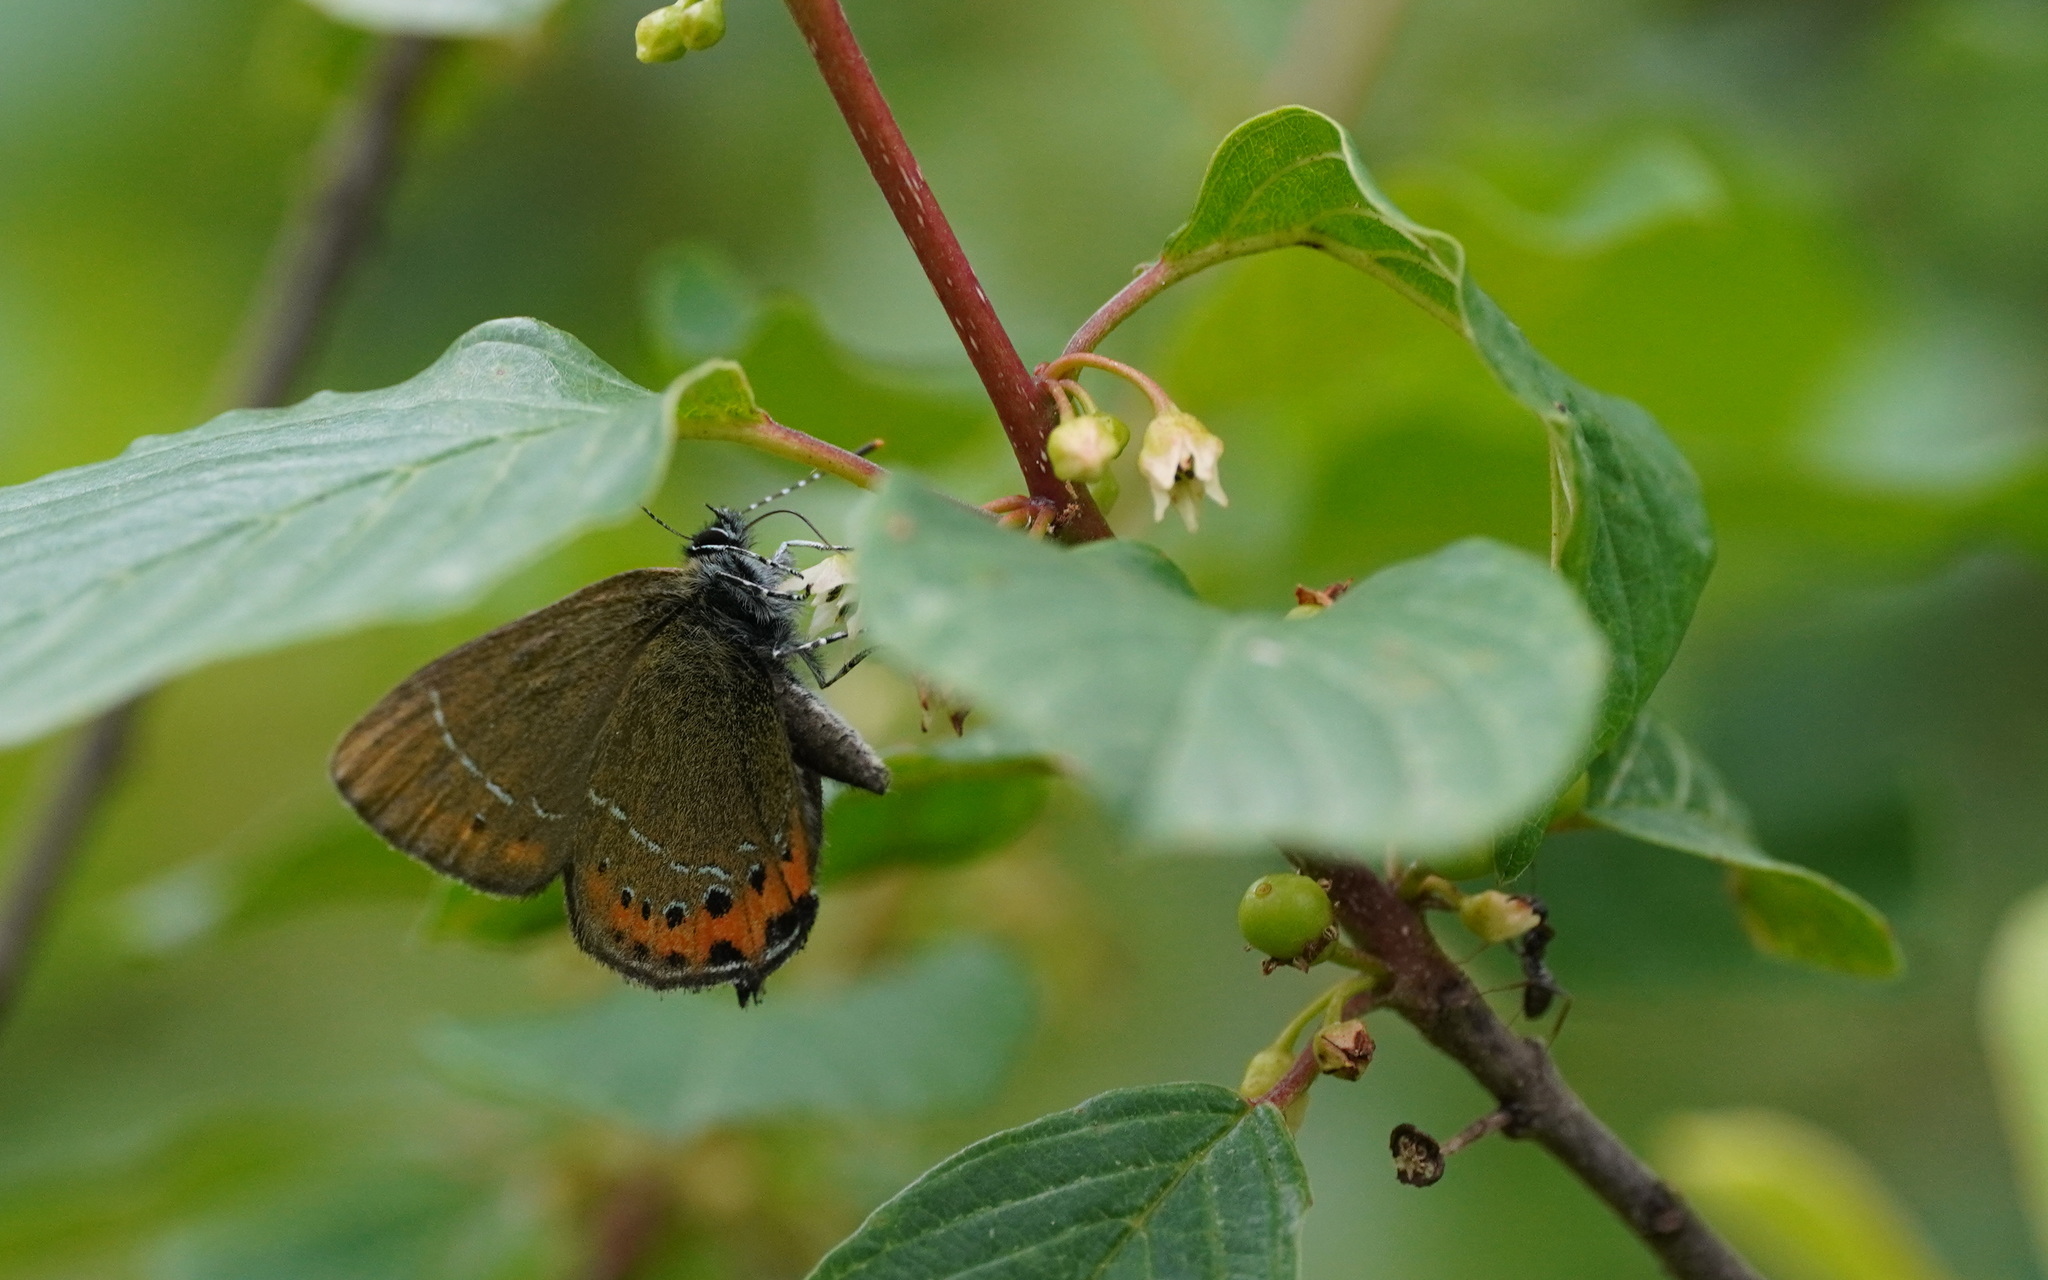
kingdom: Animalia
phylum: Arthropoda
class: Insecta
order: Lepidoptera
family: Lycaenidae
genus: Fixsenia
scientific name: Fixsenia pruni
